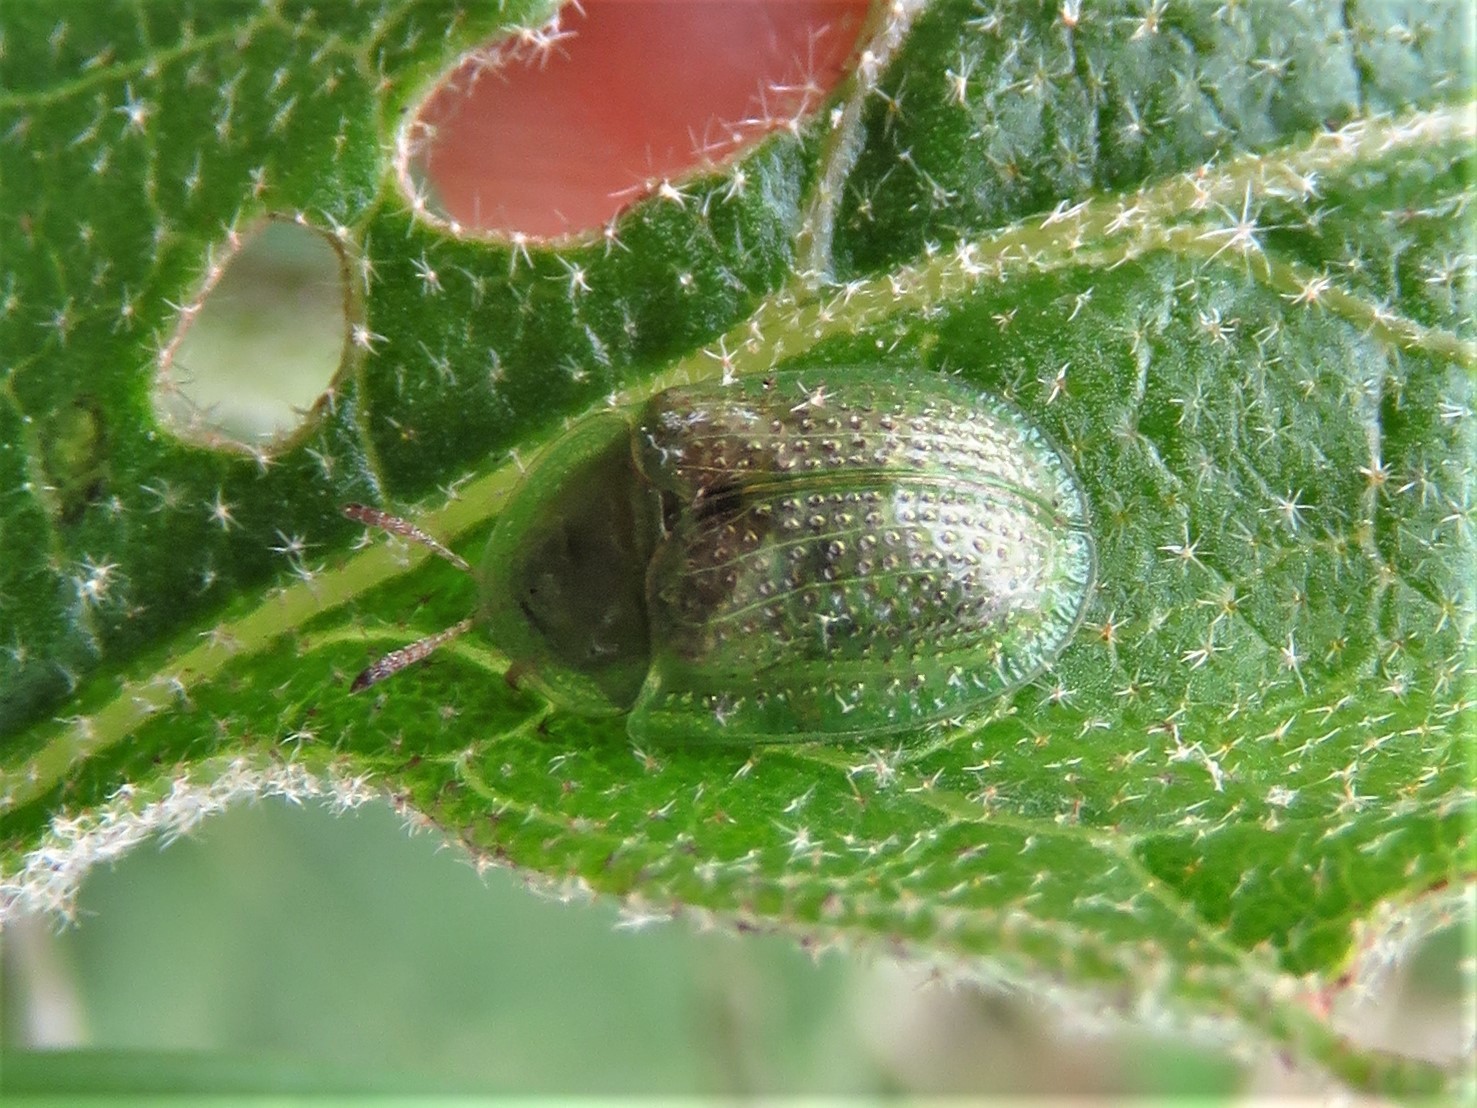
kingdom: Animalia
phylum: Arthropoda
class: Insecta
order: Coleoptera
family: Chrysomelidae
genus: Gratiana
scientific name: Gratiana pallidula
